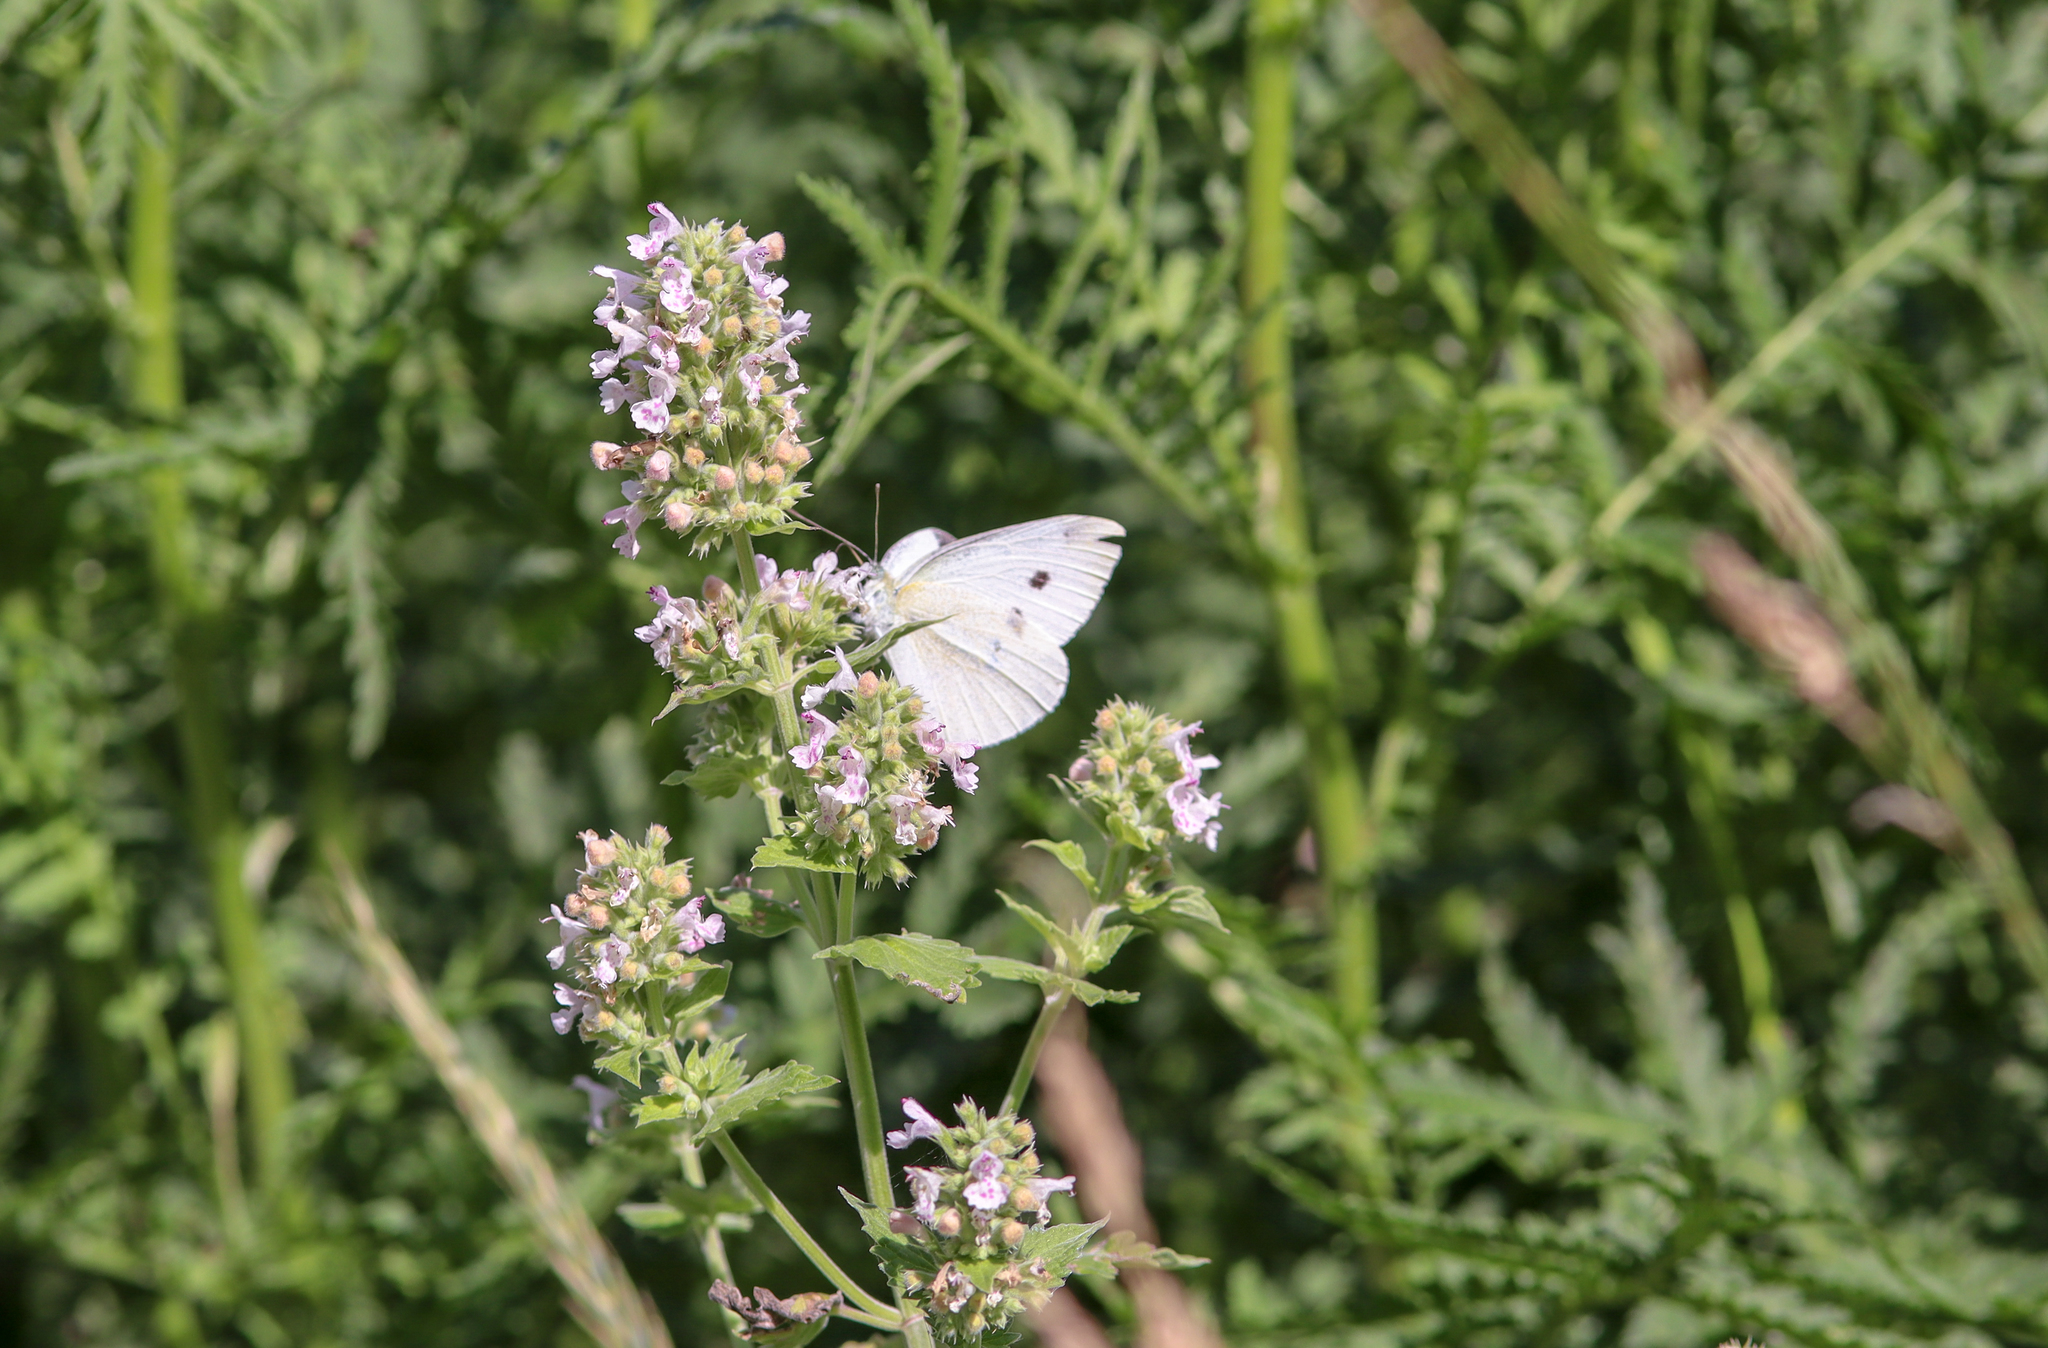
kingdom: Animalia
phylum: Arthropoda
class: Insecta
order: Lepidoptera
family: Pieridae
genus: Pieris
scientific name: Pieris rapae
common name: Small white
